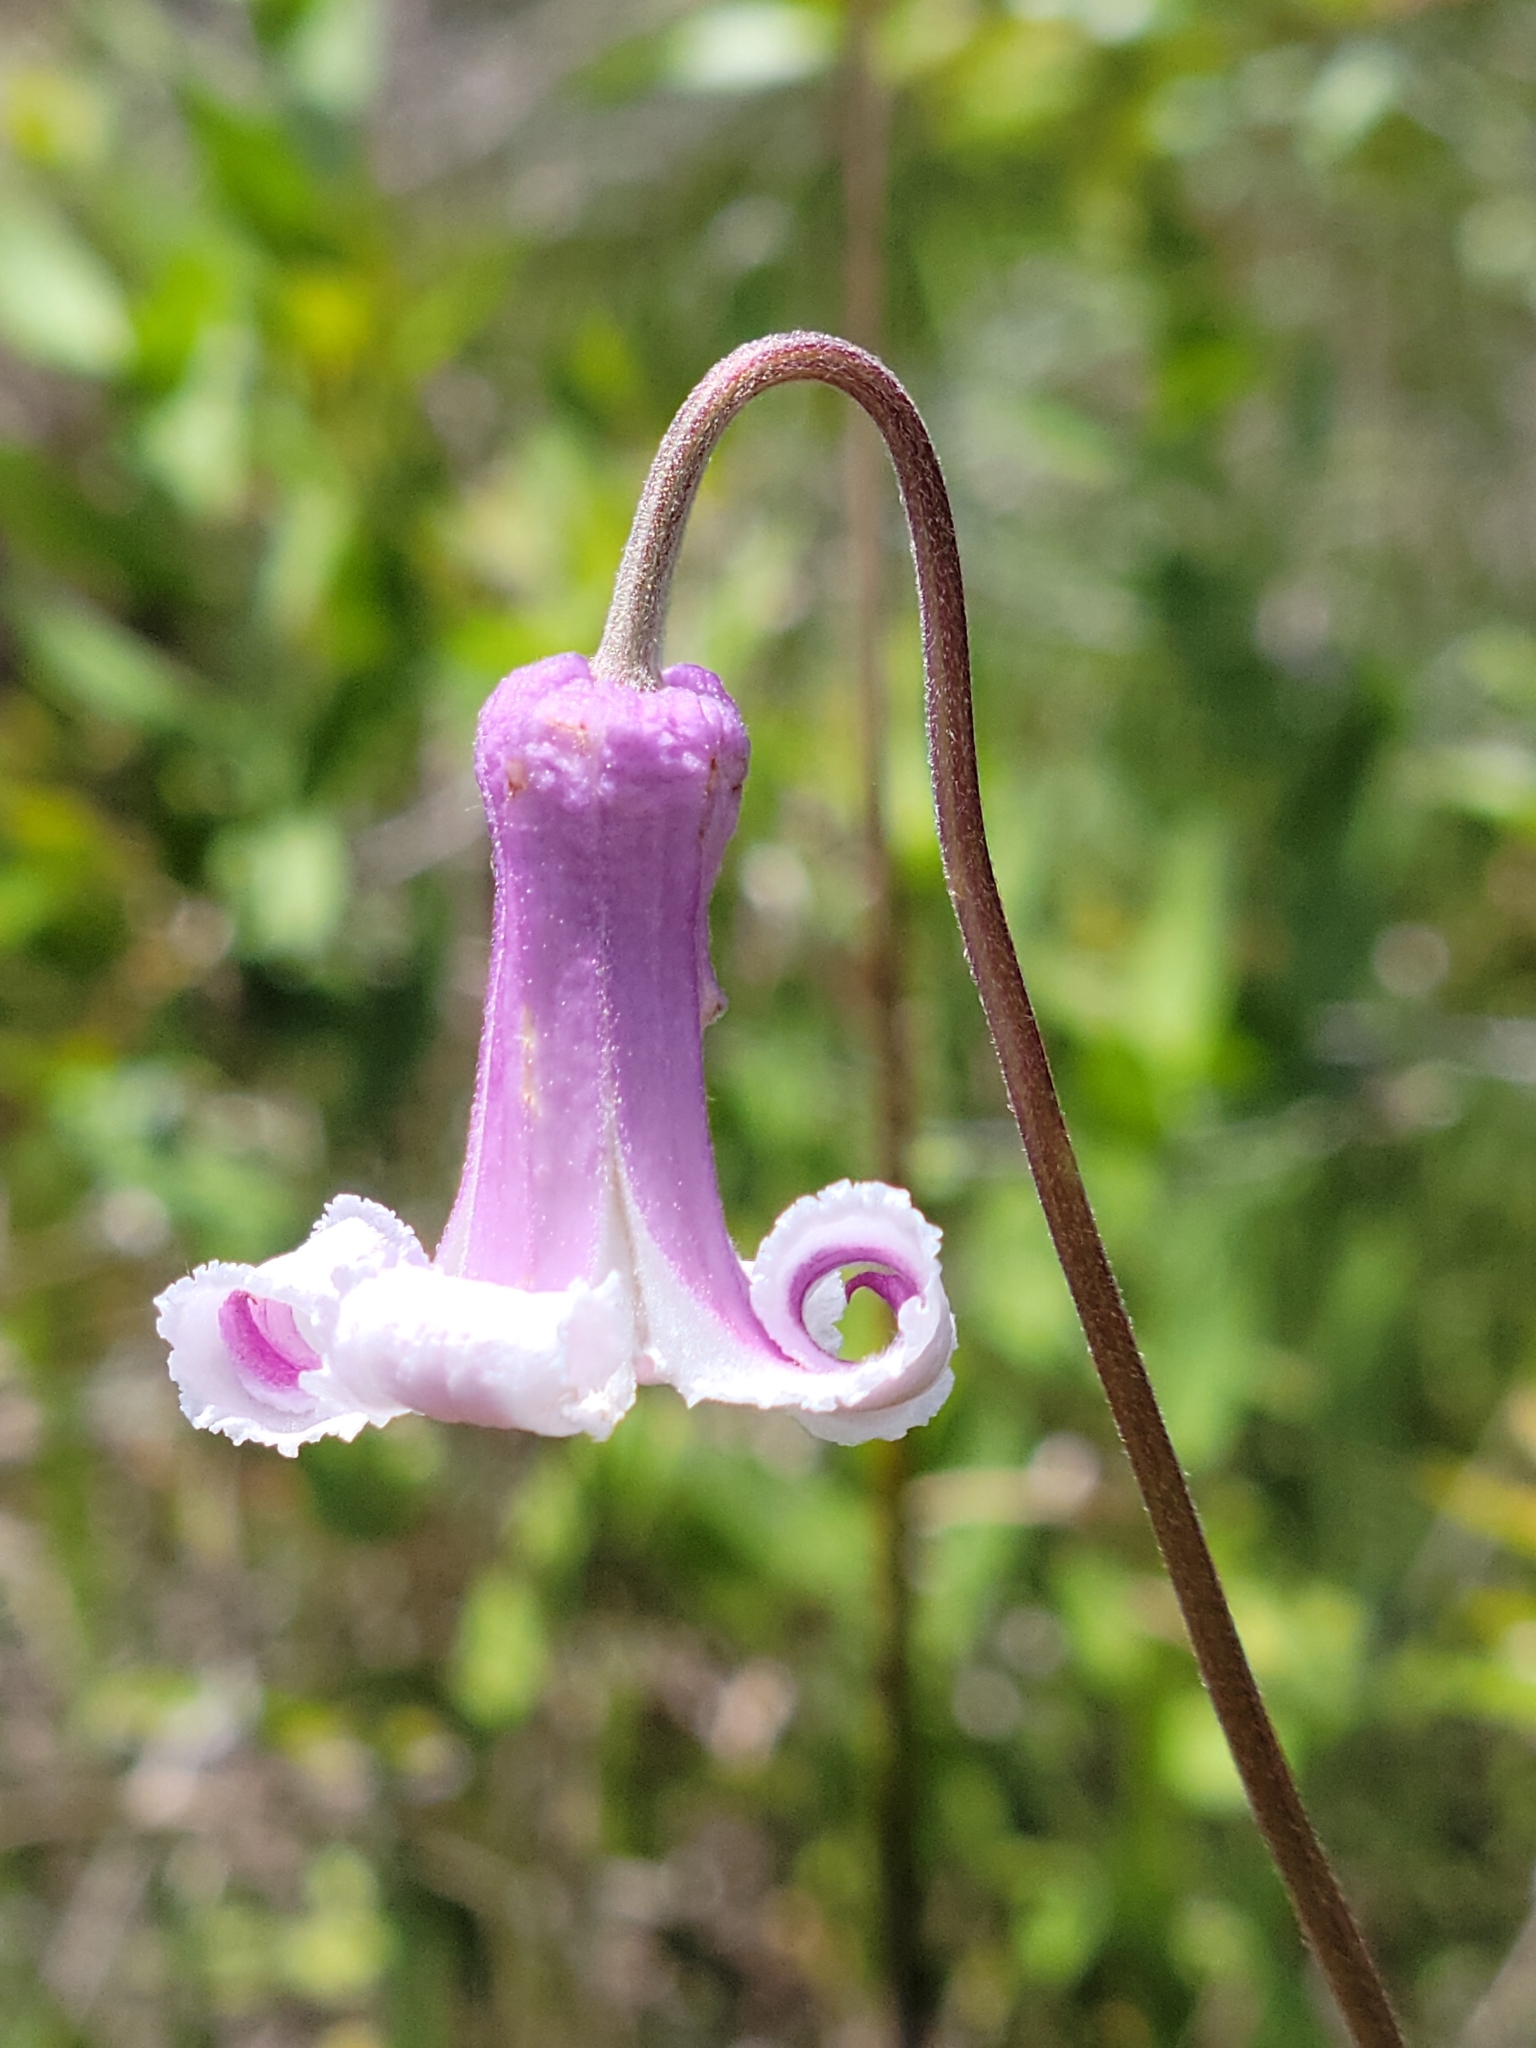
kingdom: Plantae
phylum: Tracheophyta
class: Magnoliopsida
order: Ranunculales
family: Ranunculaceae
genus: Clematis
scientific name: Clematis baldwinii
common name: Pine-hyacinth
